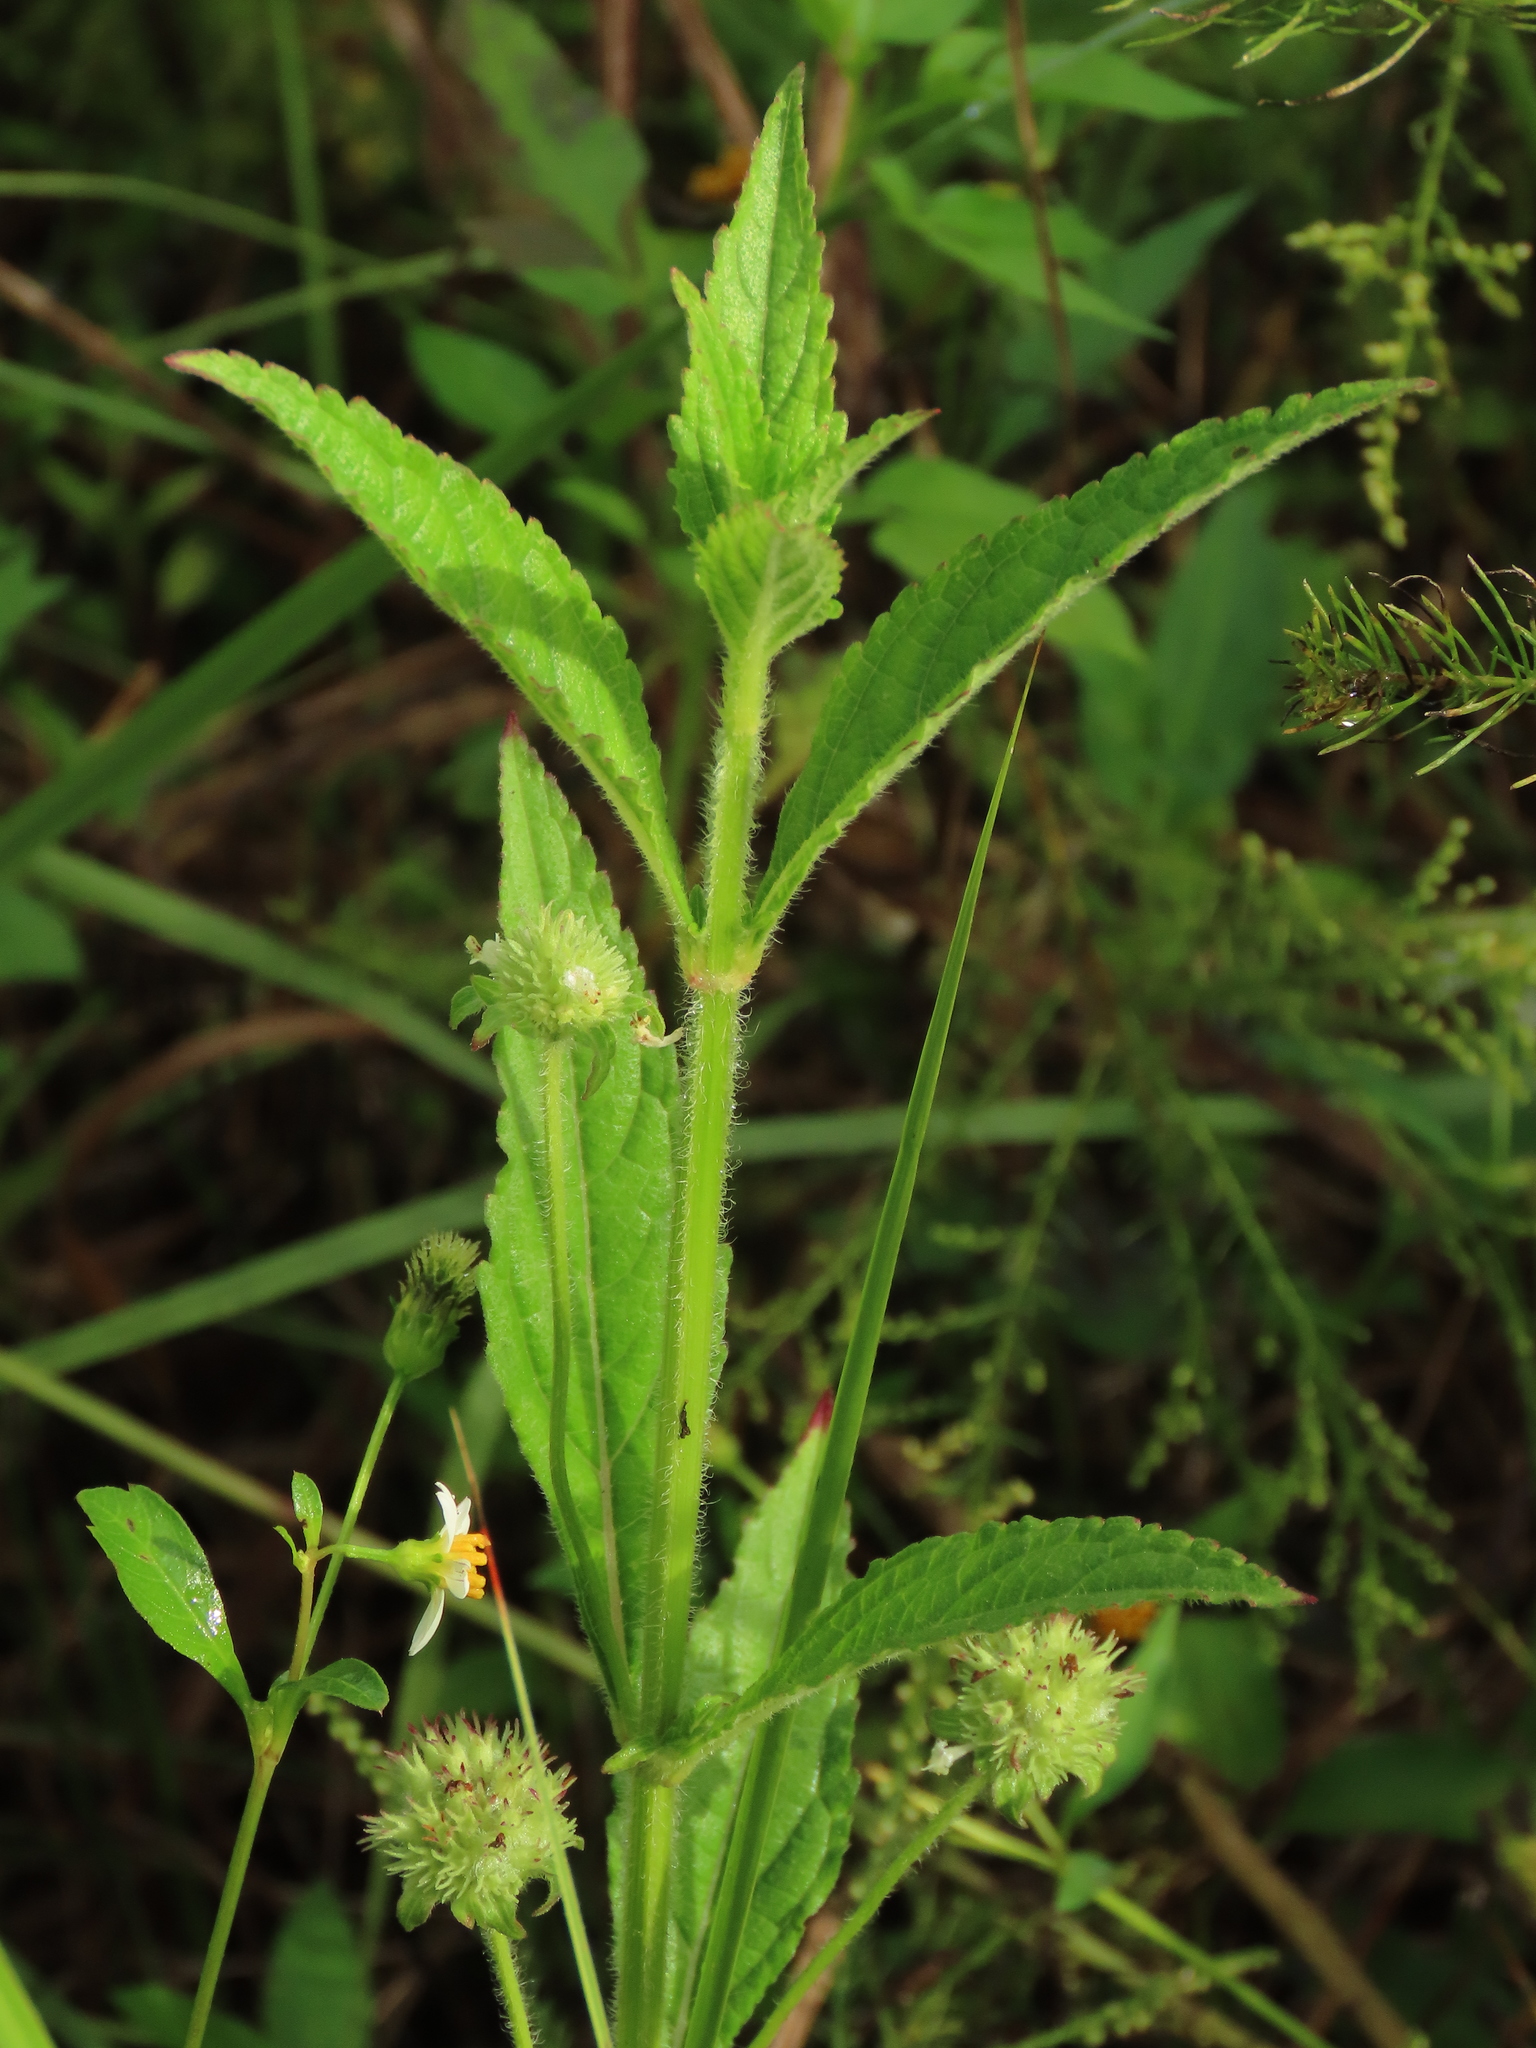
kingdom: Plantae
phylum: Tracheophyta
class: Magnoliopsida
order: Lamiales
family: Lamiaceae
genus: Hyptis
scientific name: Hyptis capitata
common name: False ironwort
